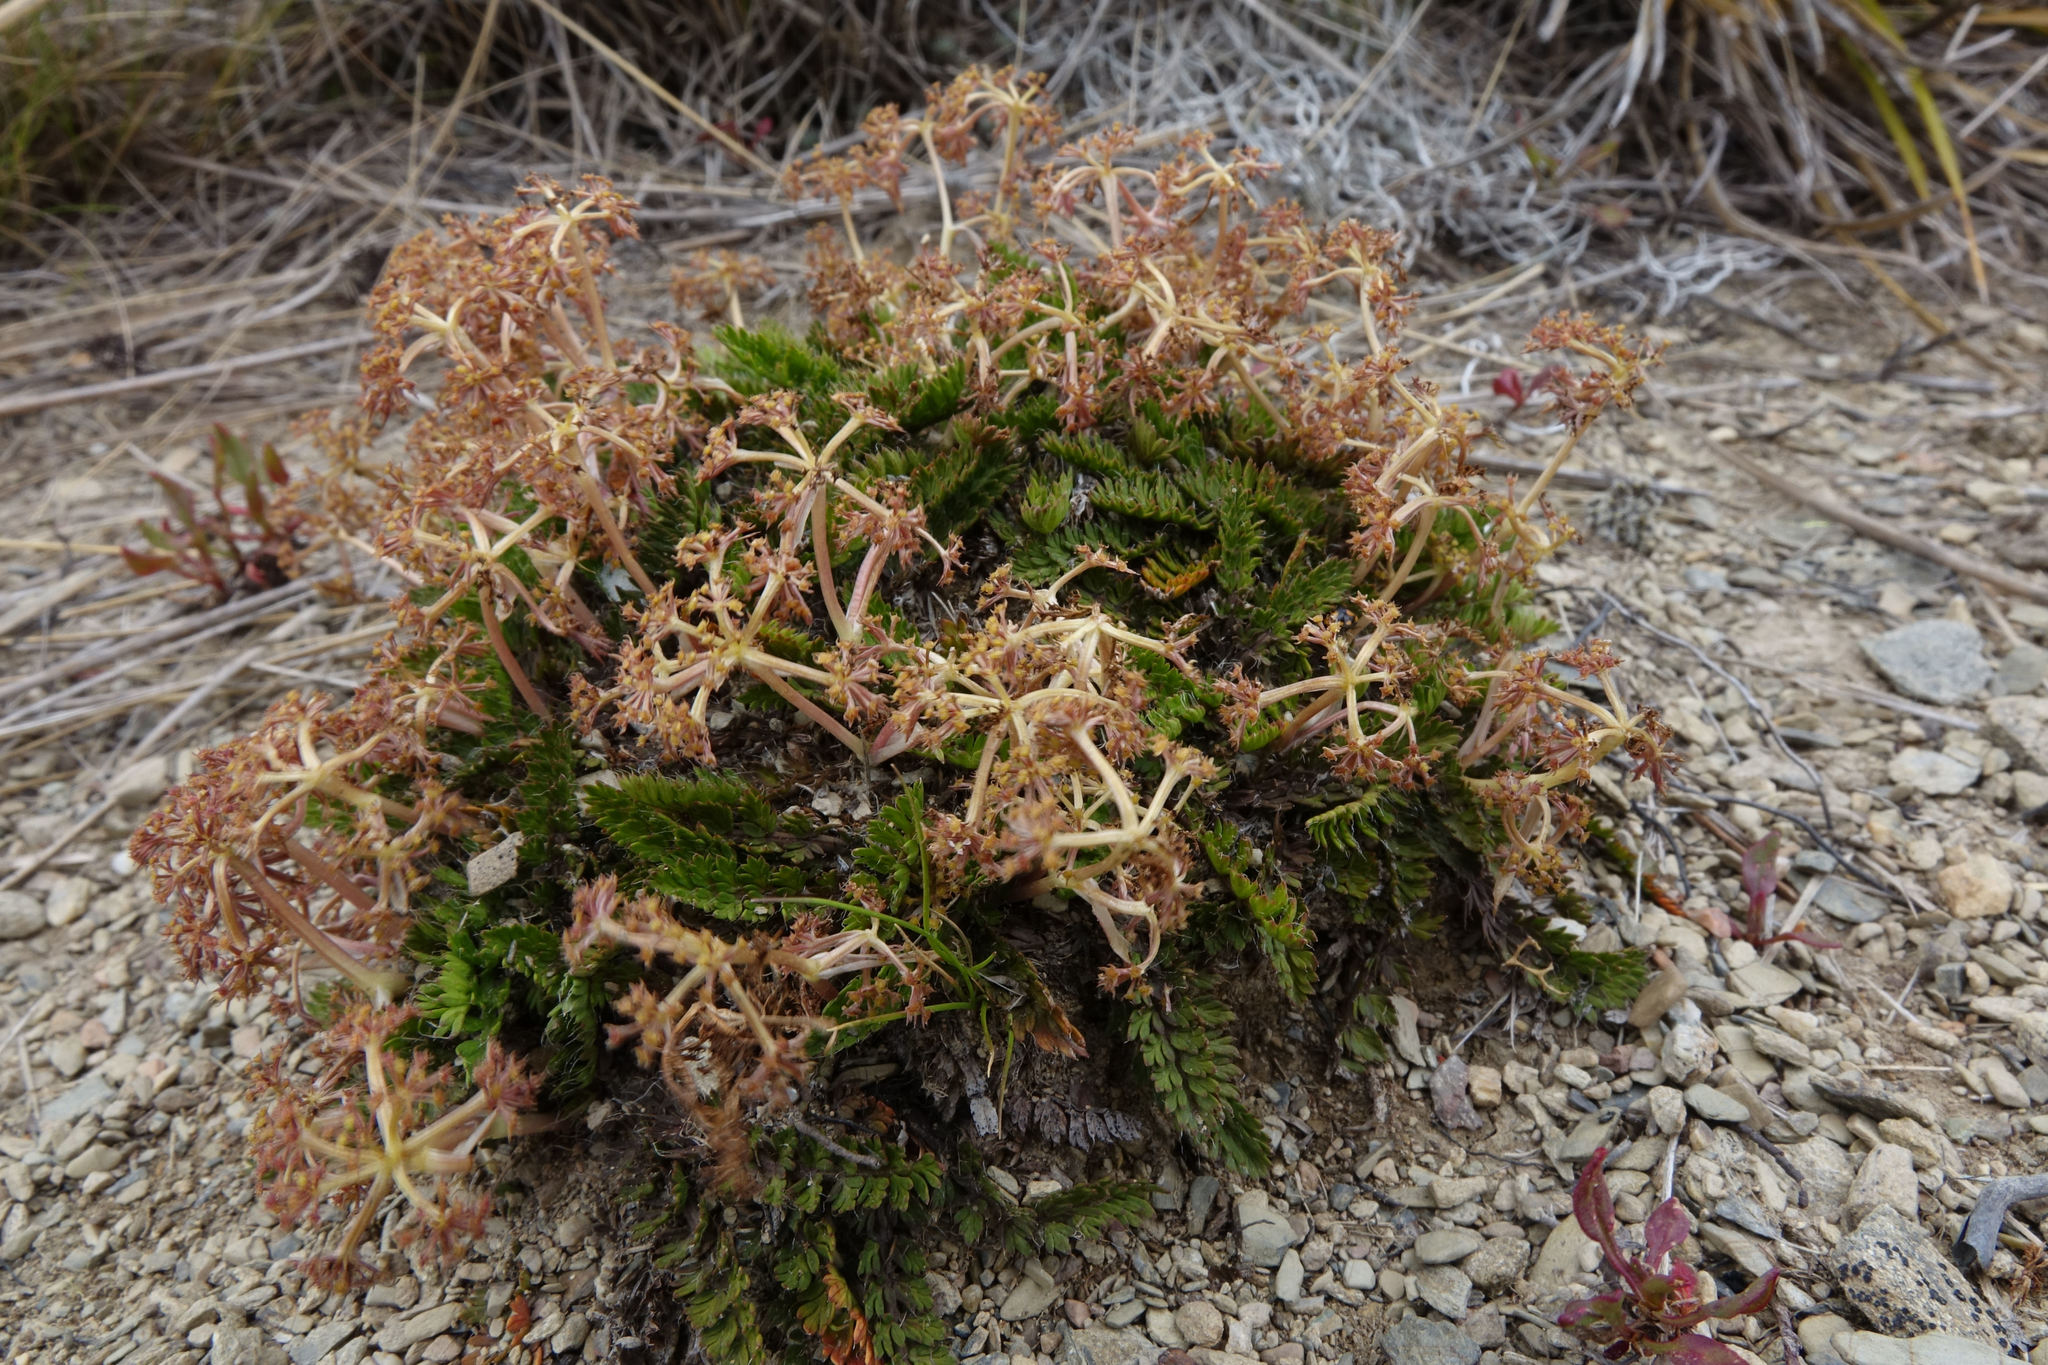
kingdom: Plantae
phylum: Tracheophyta
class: Magnoliopsida
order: Apiales
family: Apiaceae
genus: Anisotome
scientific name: Anisotome aromatica
